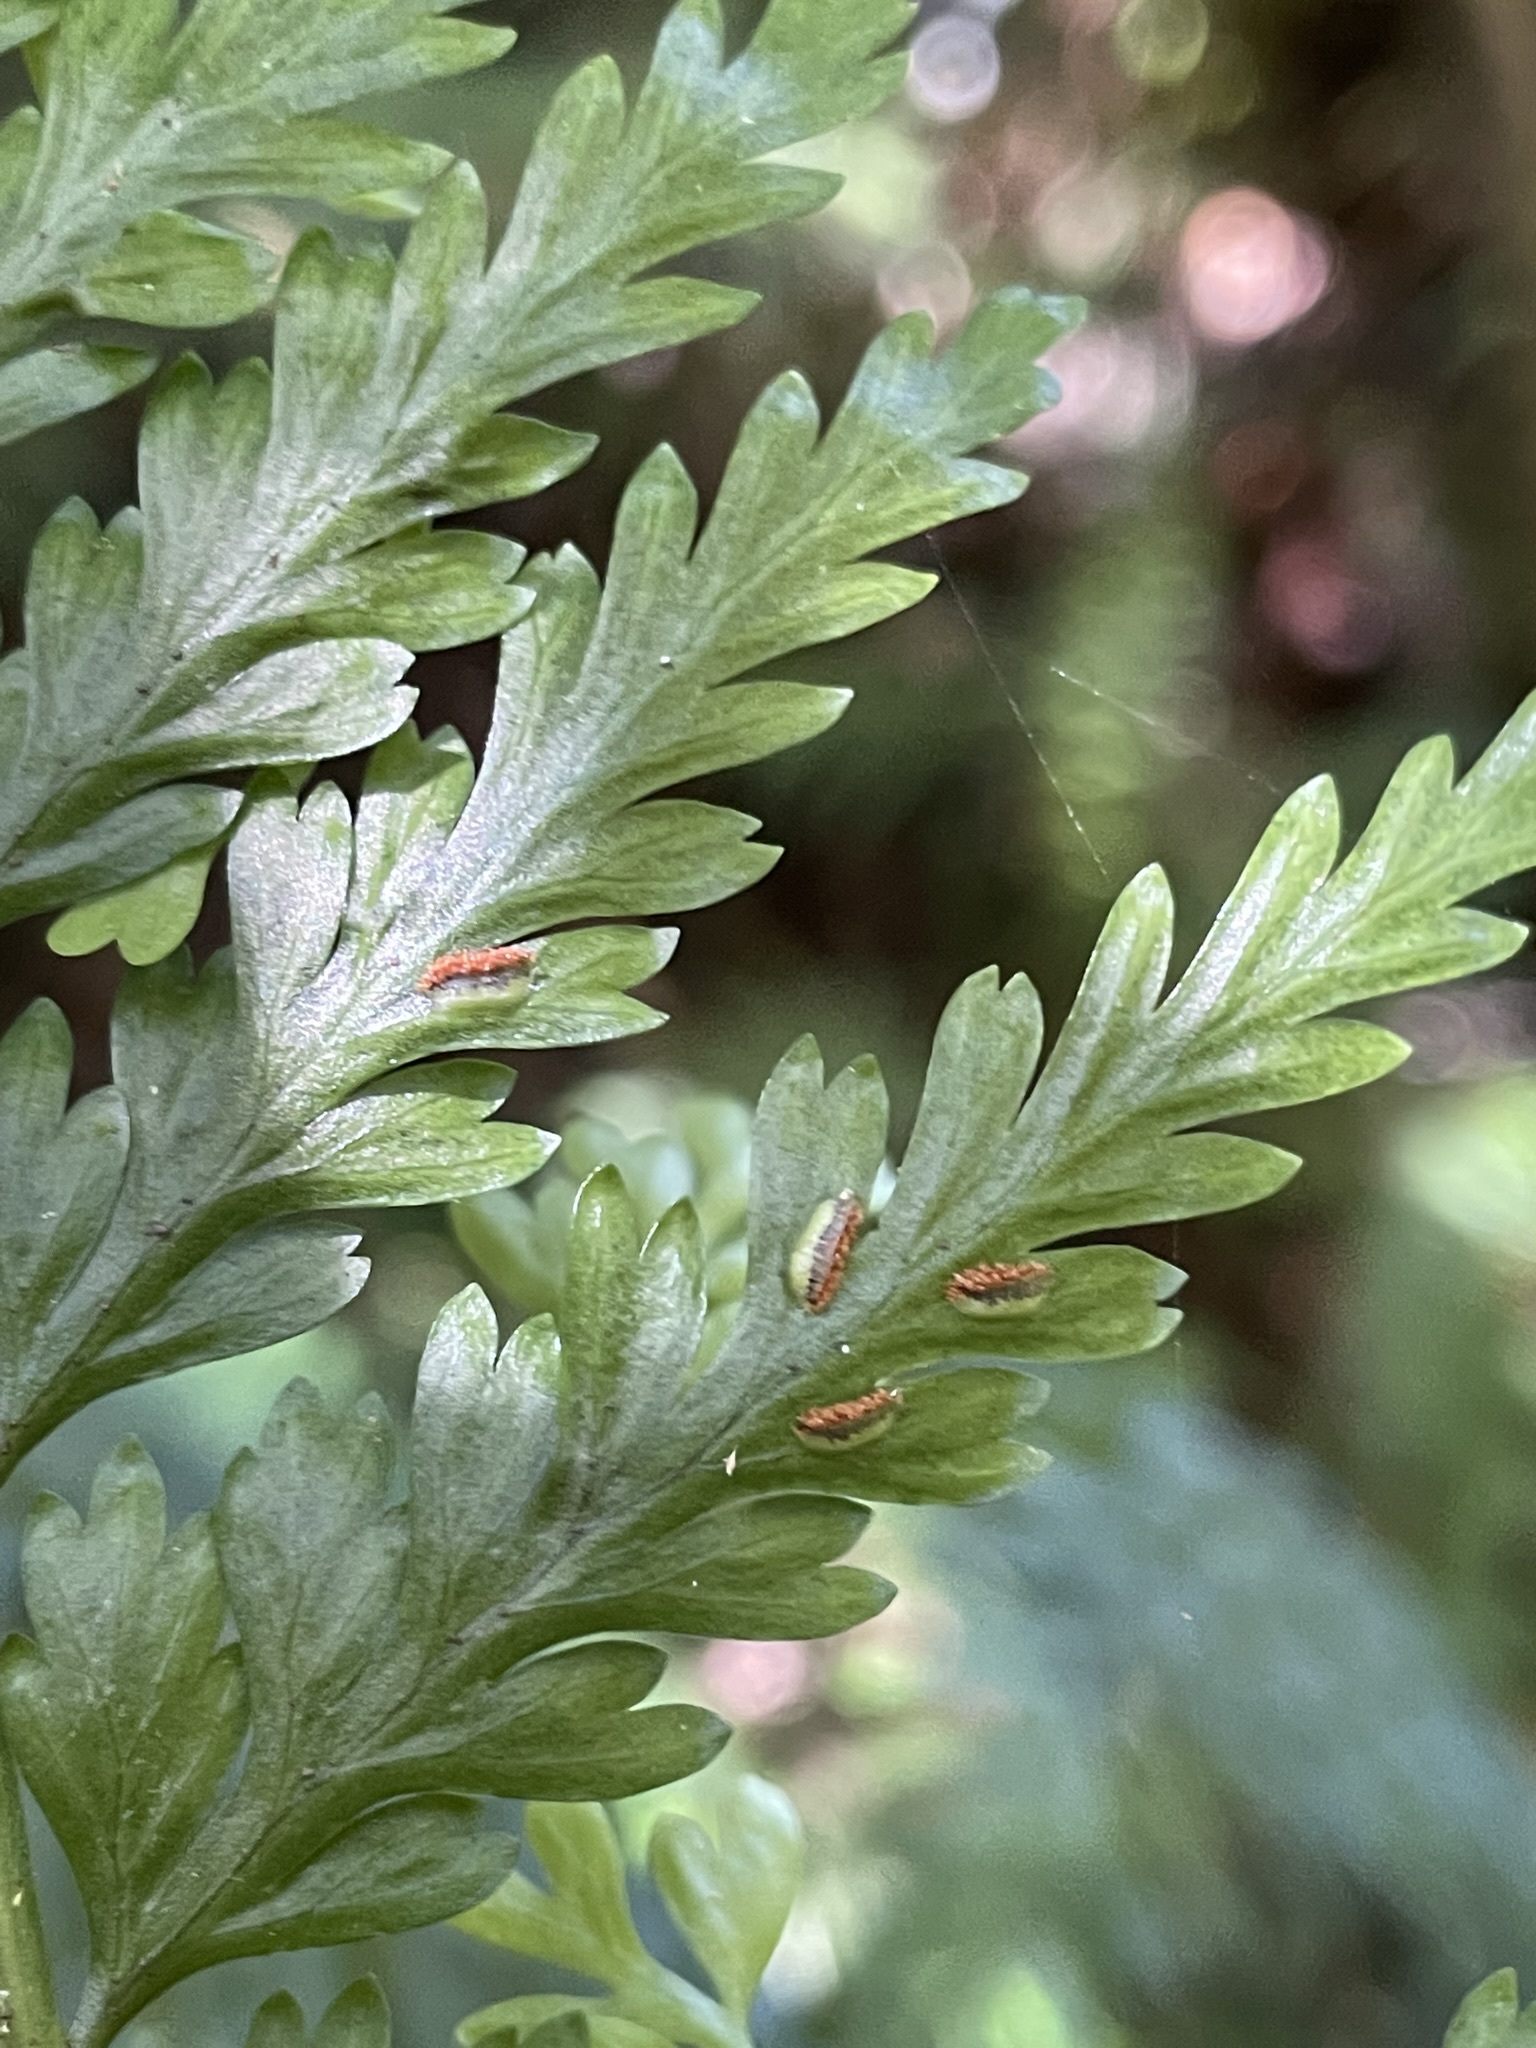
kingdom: Plantae
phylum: Tracheophyta
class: Polypodiopsida
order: Polypodiales
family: Aspleniaceae
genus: Asplenium
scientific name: Asplenium bulbiferum
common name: Mother fern
